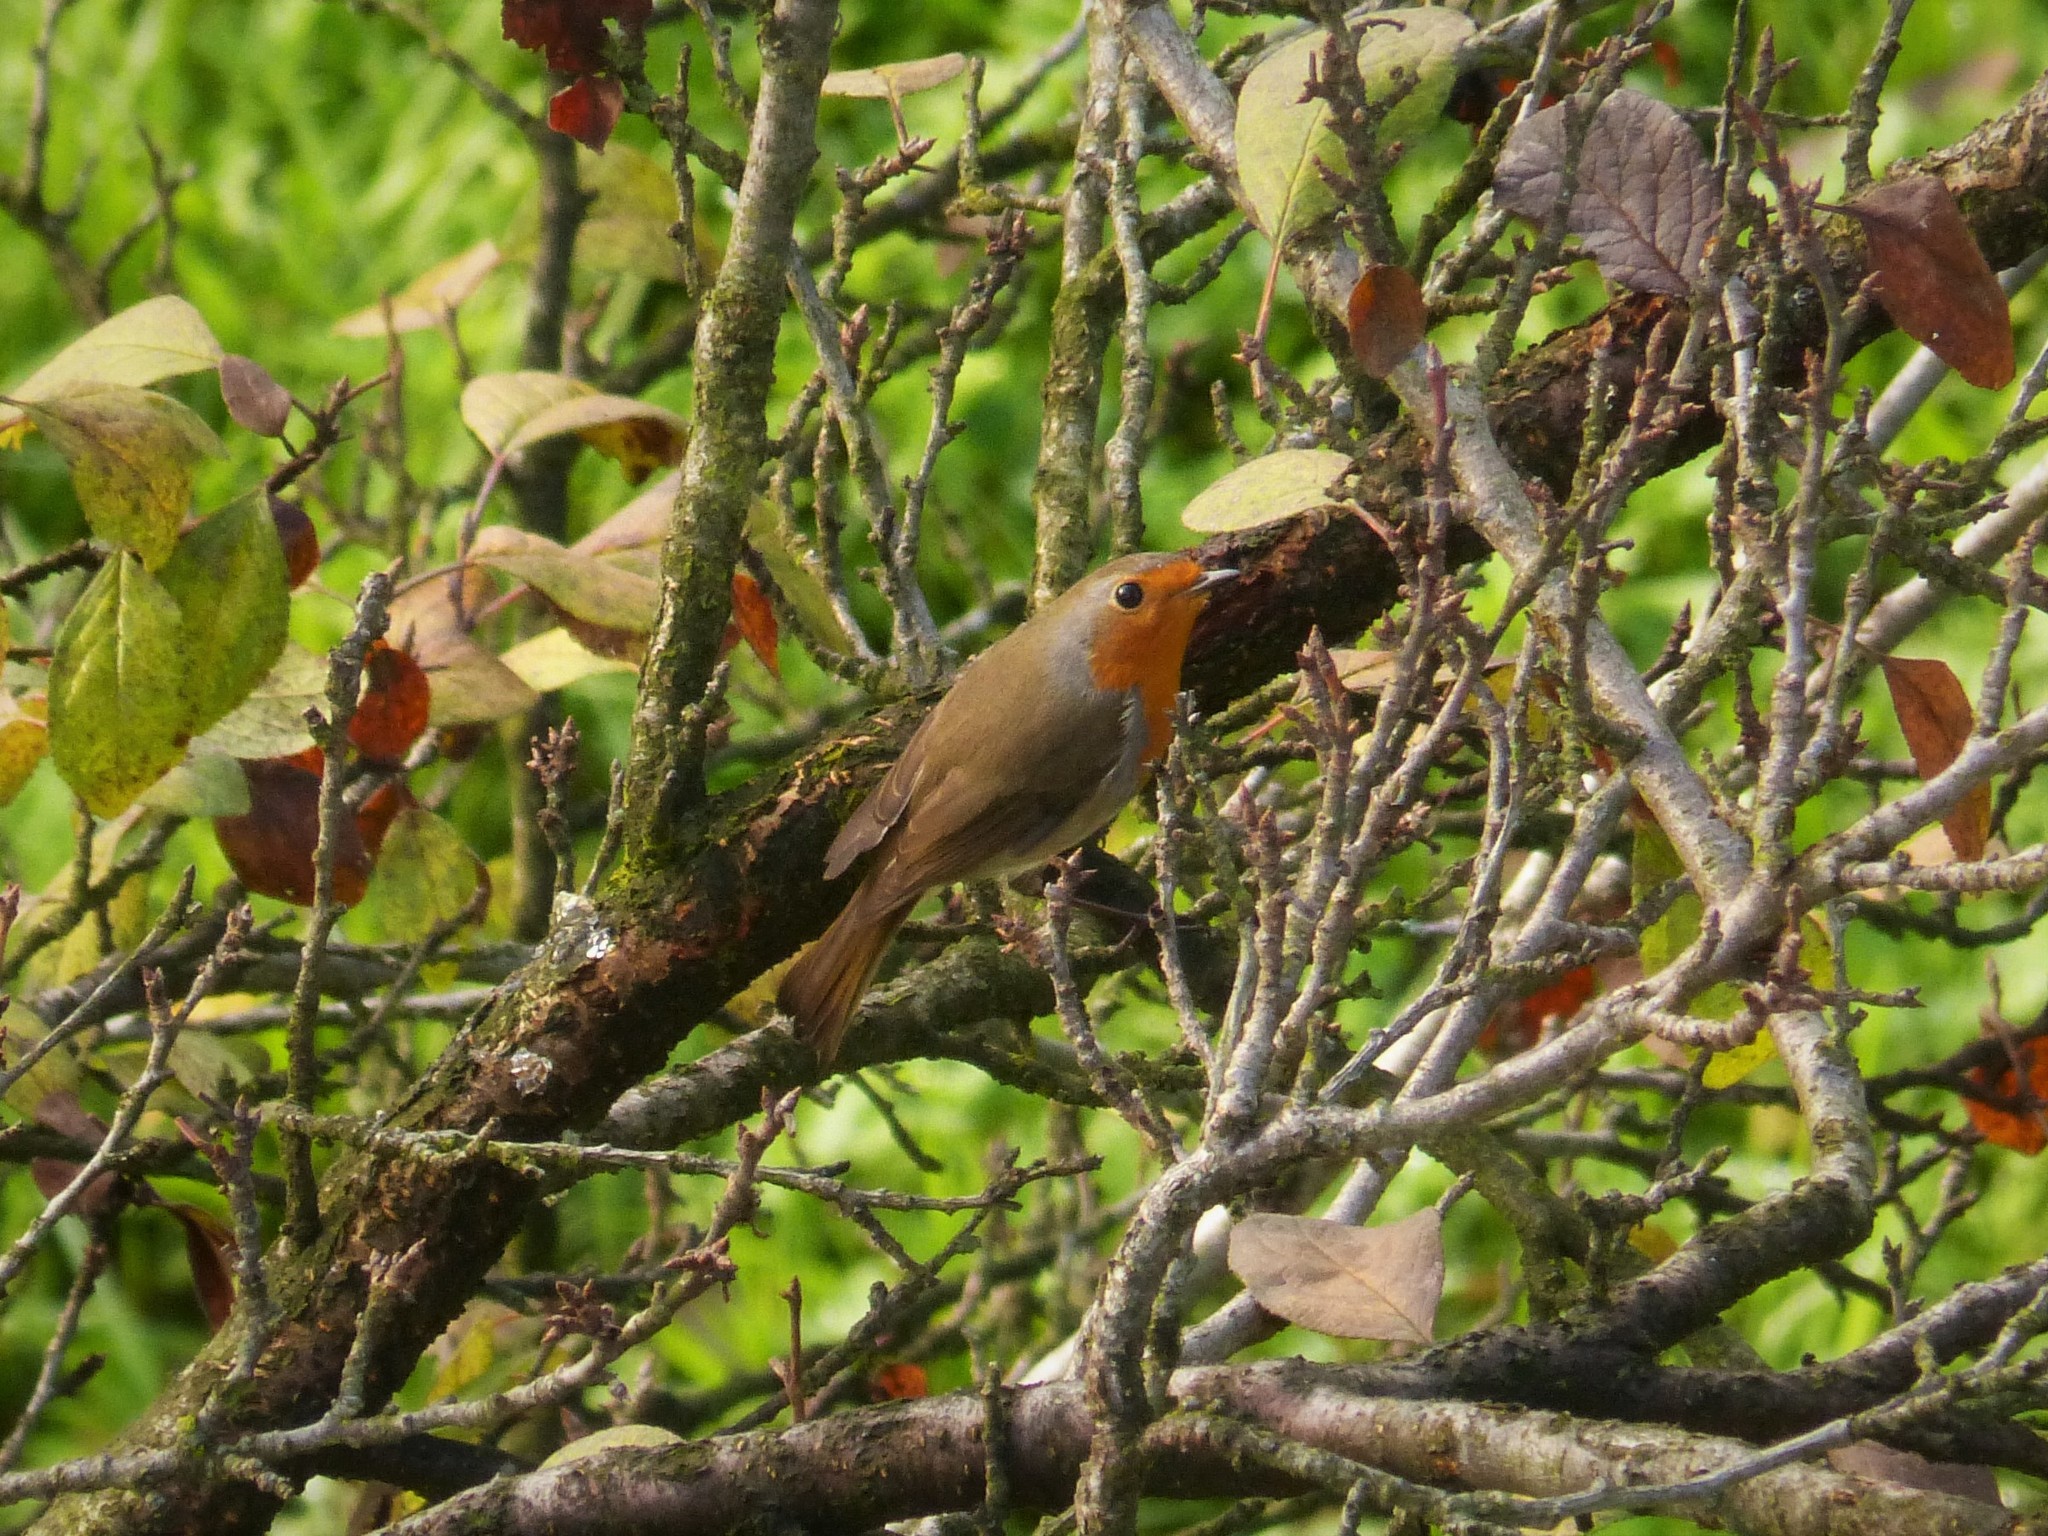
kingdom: Animalia
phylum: Chordata
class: Aves
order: Passeriformes
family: Muscicapidae
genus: Erithacus
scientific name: Erithacus rubecula
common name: European robin
